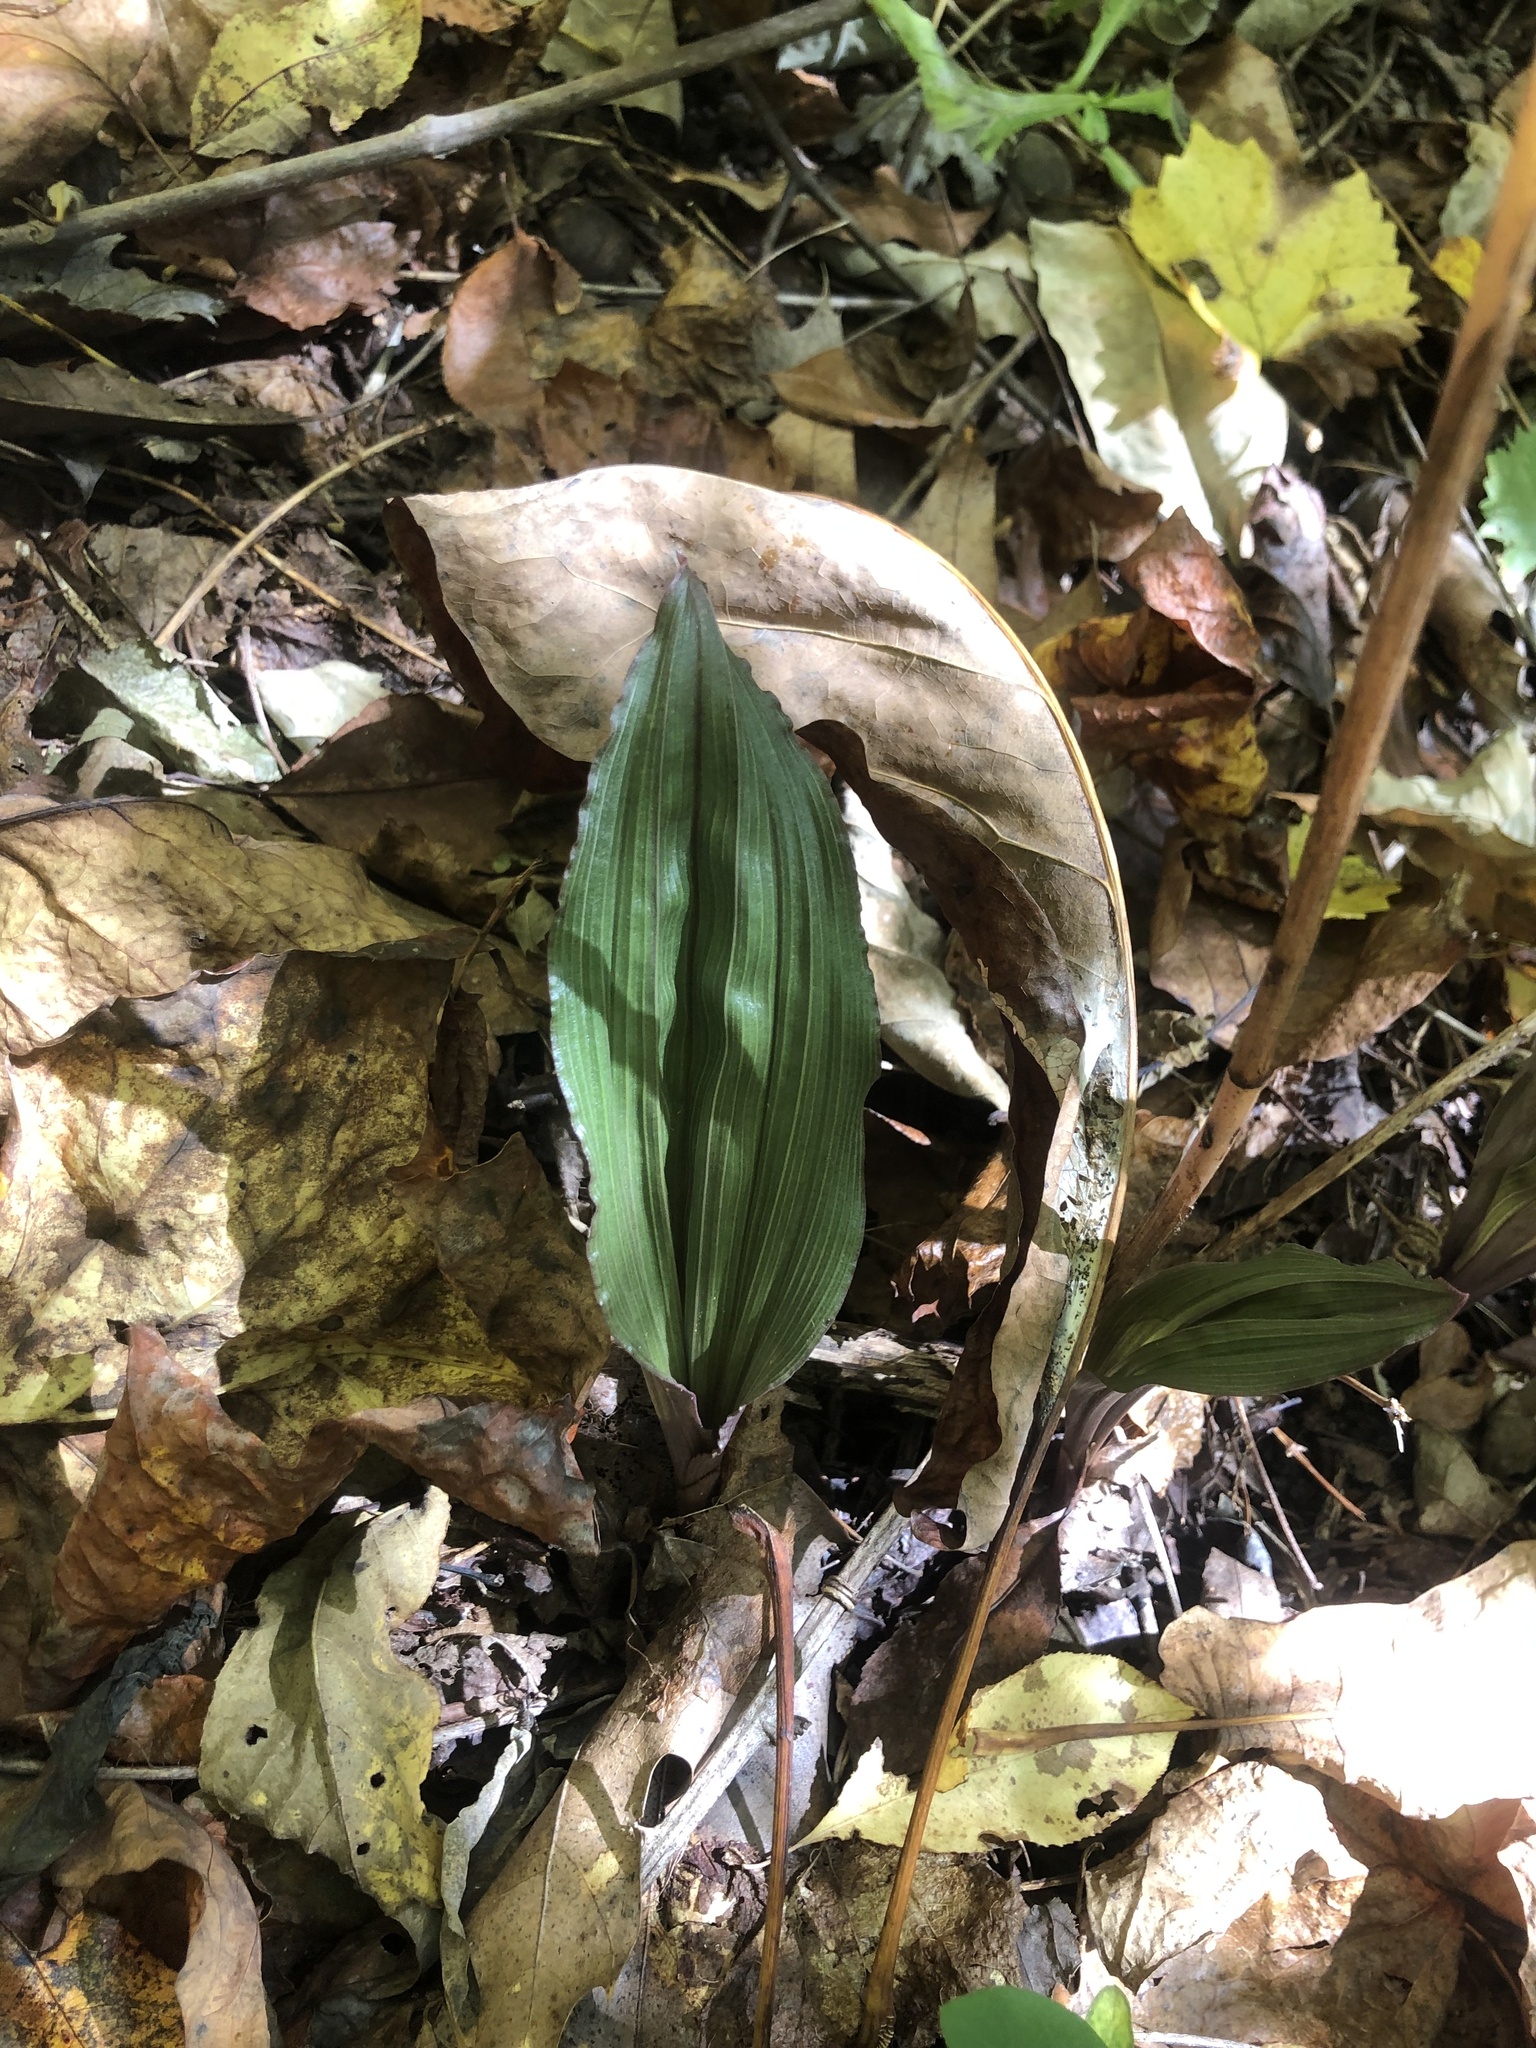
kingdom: Plantae
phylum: Tracheophyta
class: Liliopsida
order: Asparagales
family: Orchidaceae
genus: Aplectrum
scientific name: Aplectrum hyemale
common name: Adam-and-eve
